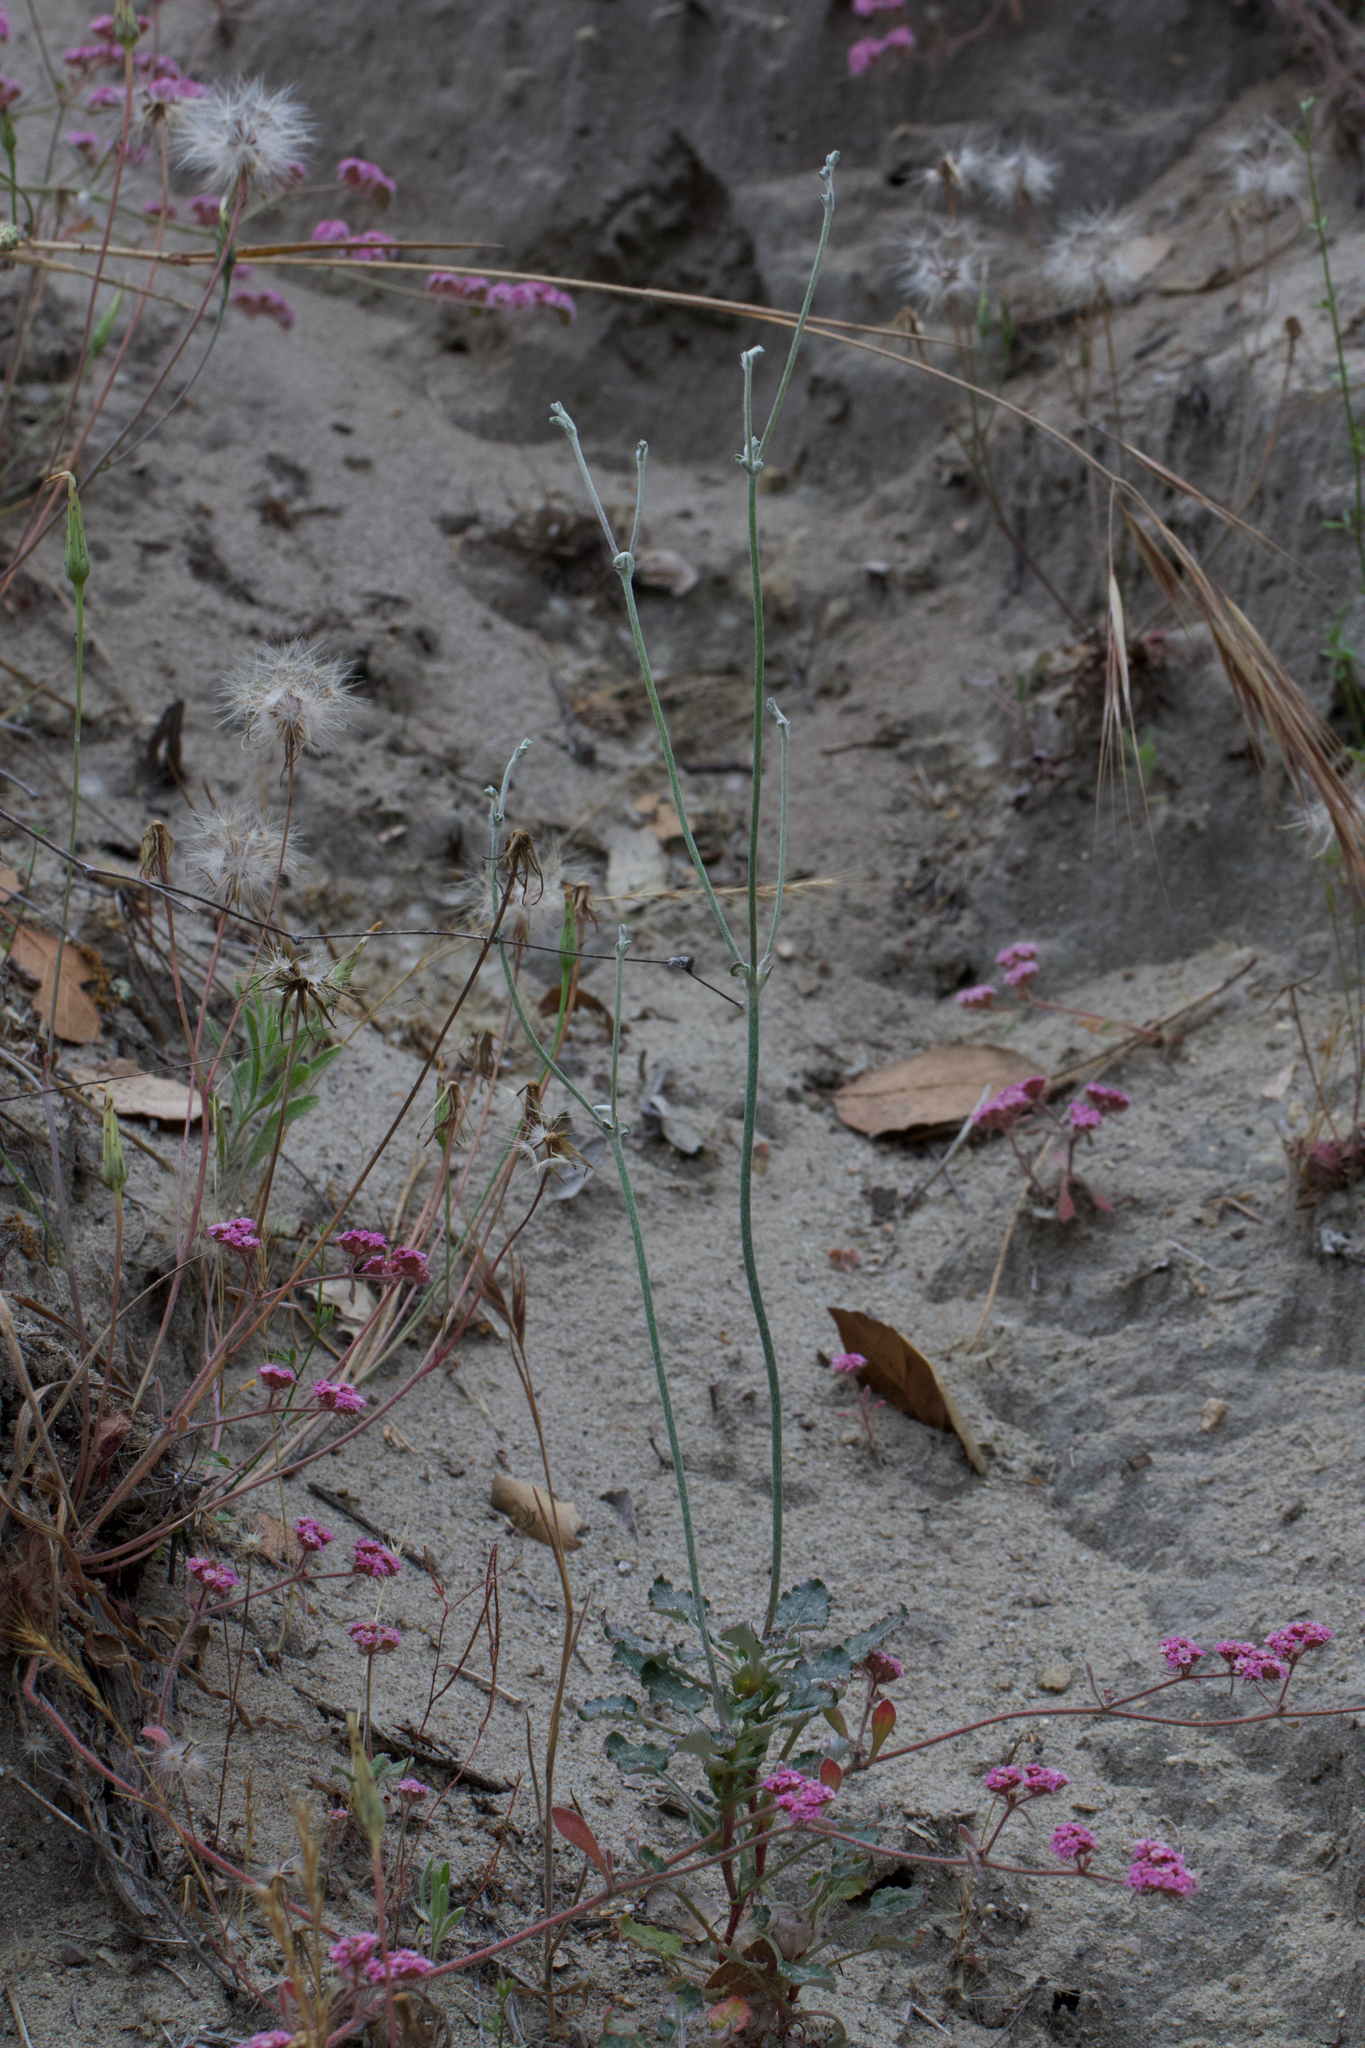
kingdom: Plantae
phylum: Tracheophyta
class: Magnoliopsida
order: Caryophyllales
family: Polygonaceae
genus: Eriogonum
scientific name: Eriogonum nudum
